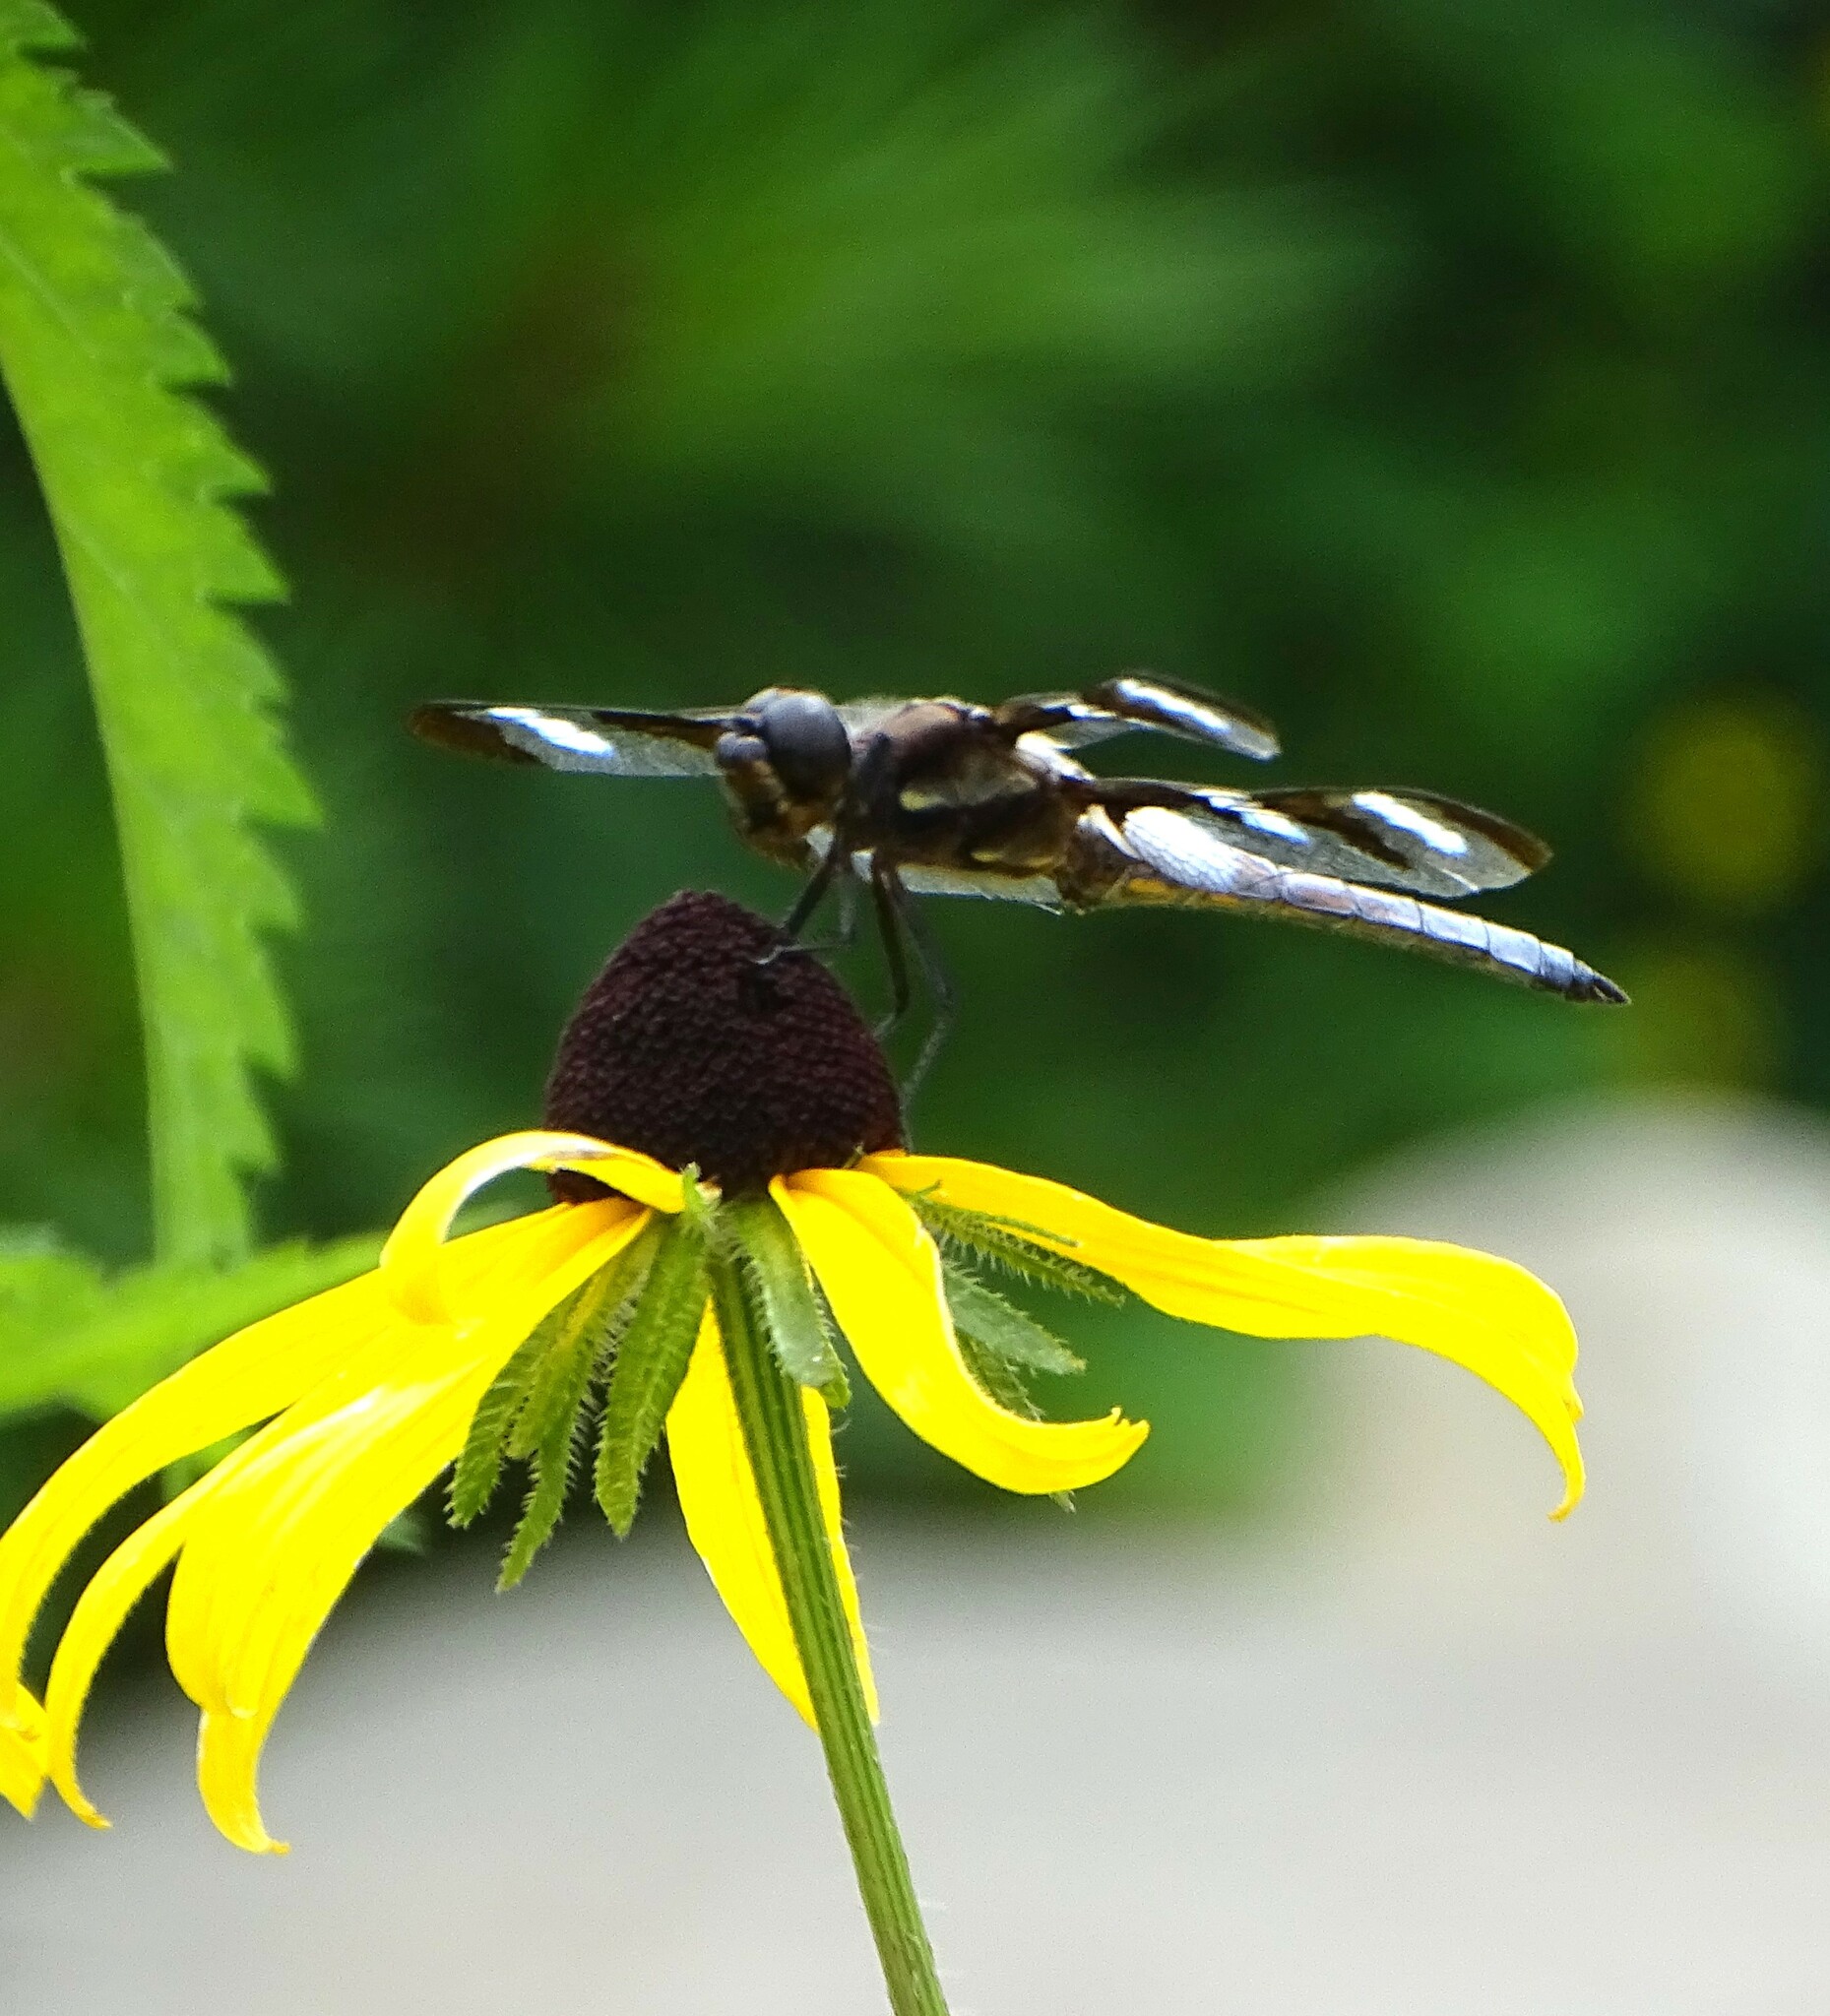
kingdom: Animalia
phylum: Arthropoda
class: Insecta
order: Odonata
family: Libellulidae
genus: Libellula
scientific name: Libellula pulchella
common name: Twelve-spotted skimmer
